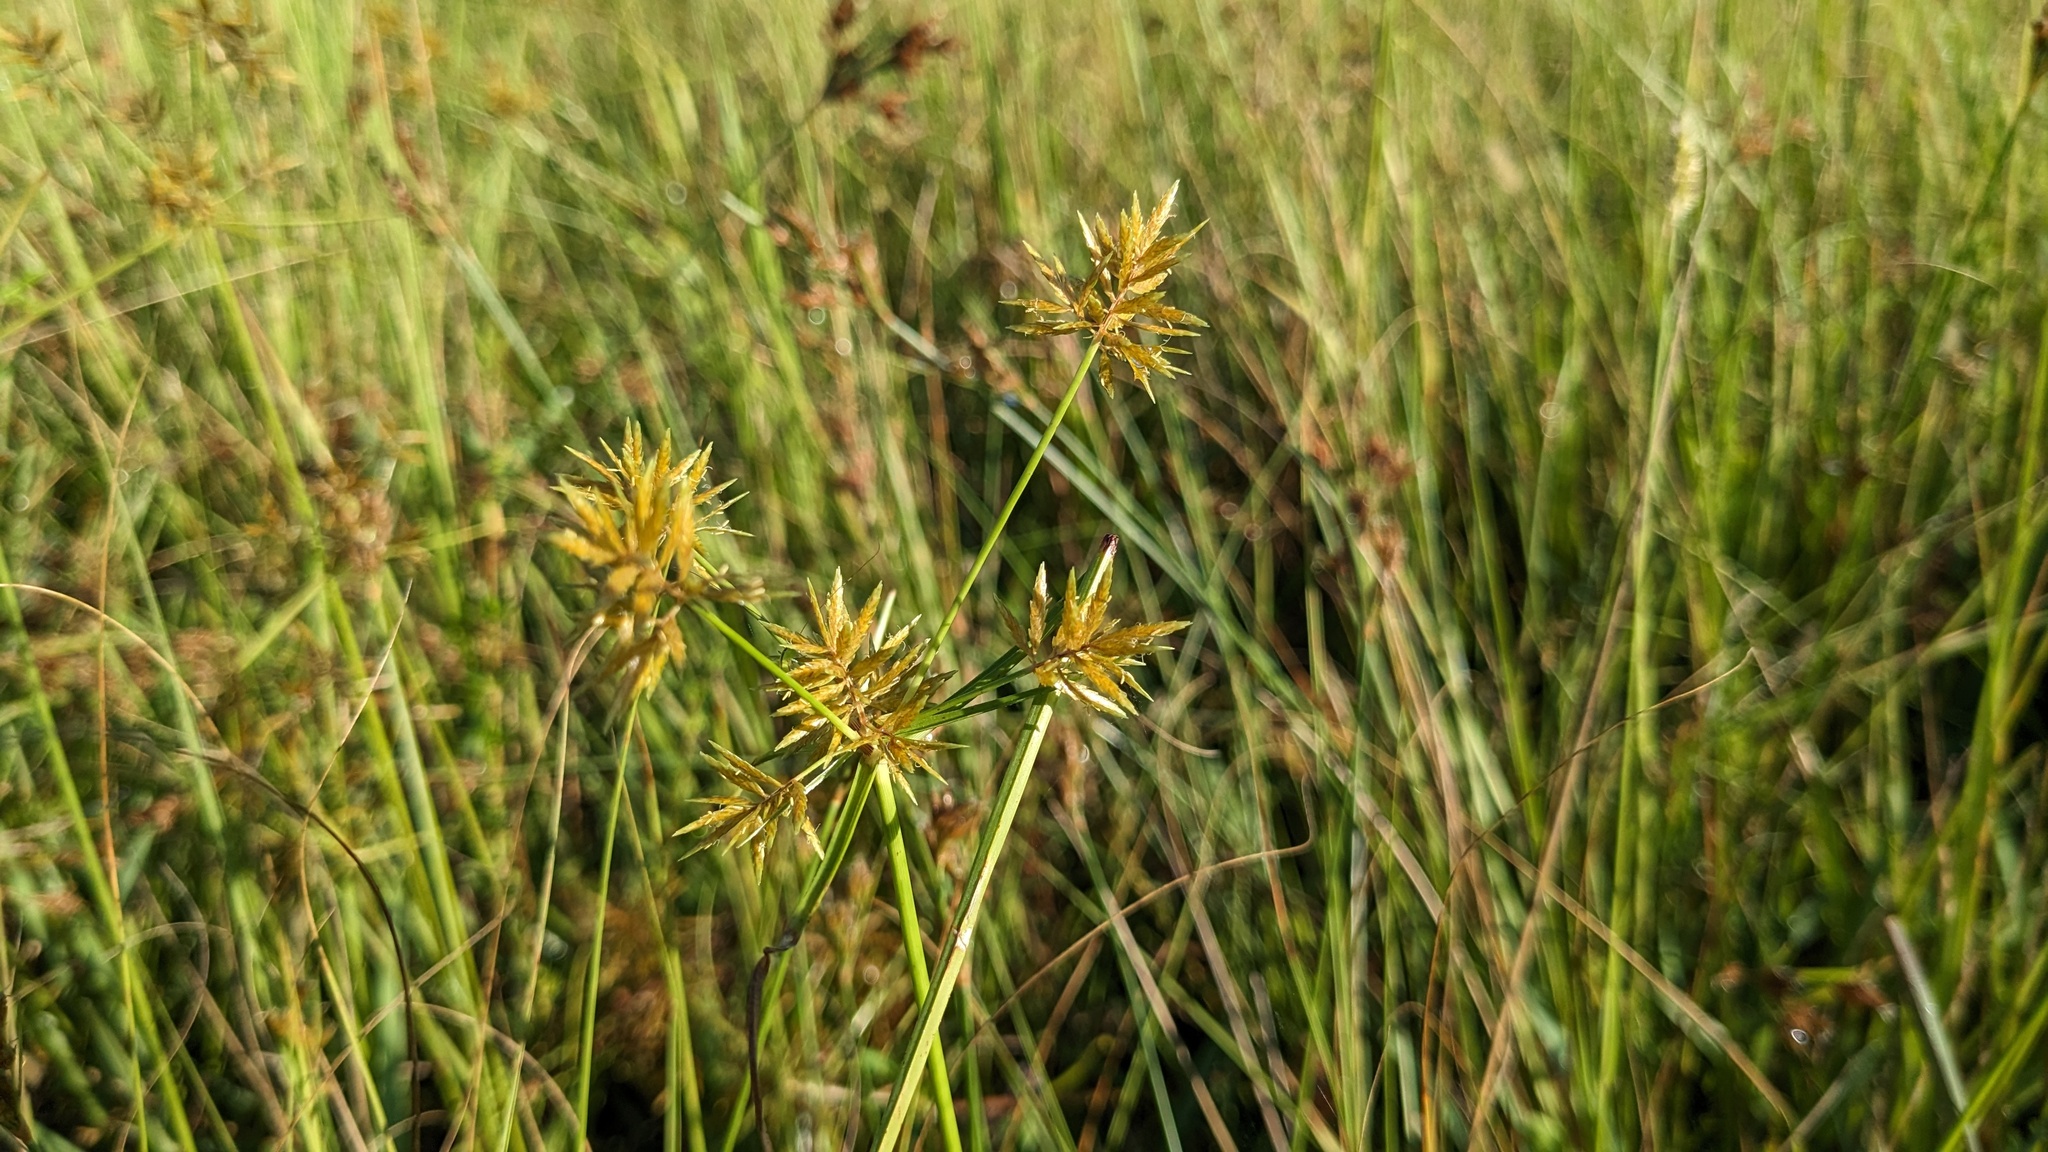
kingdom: Plantae
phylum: Tracheophyta
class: Liliopsida
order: Poales
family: Cyperaceae
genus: Cyperus
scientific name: Cyperus polystachyos
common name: Bunchy flat sedge
